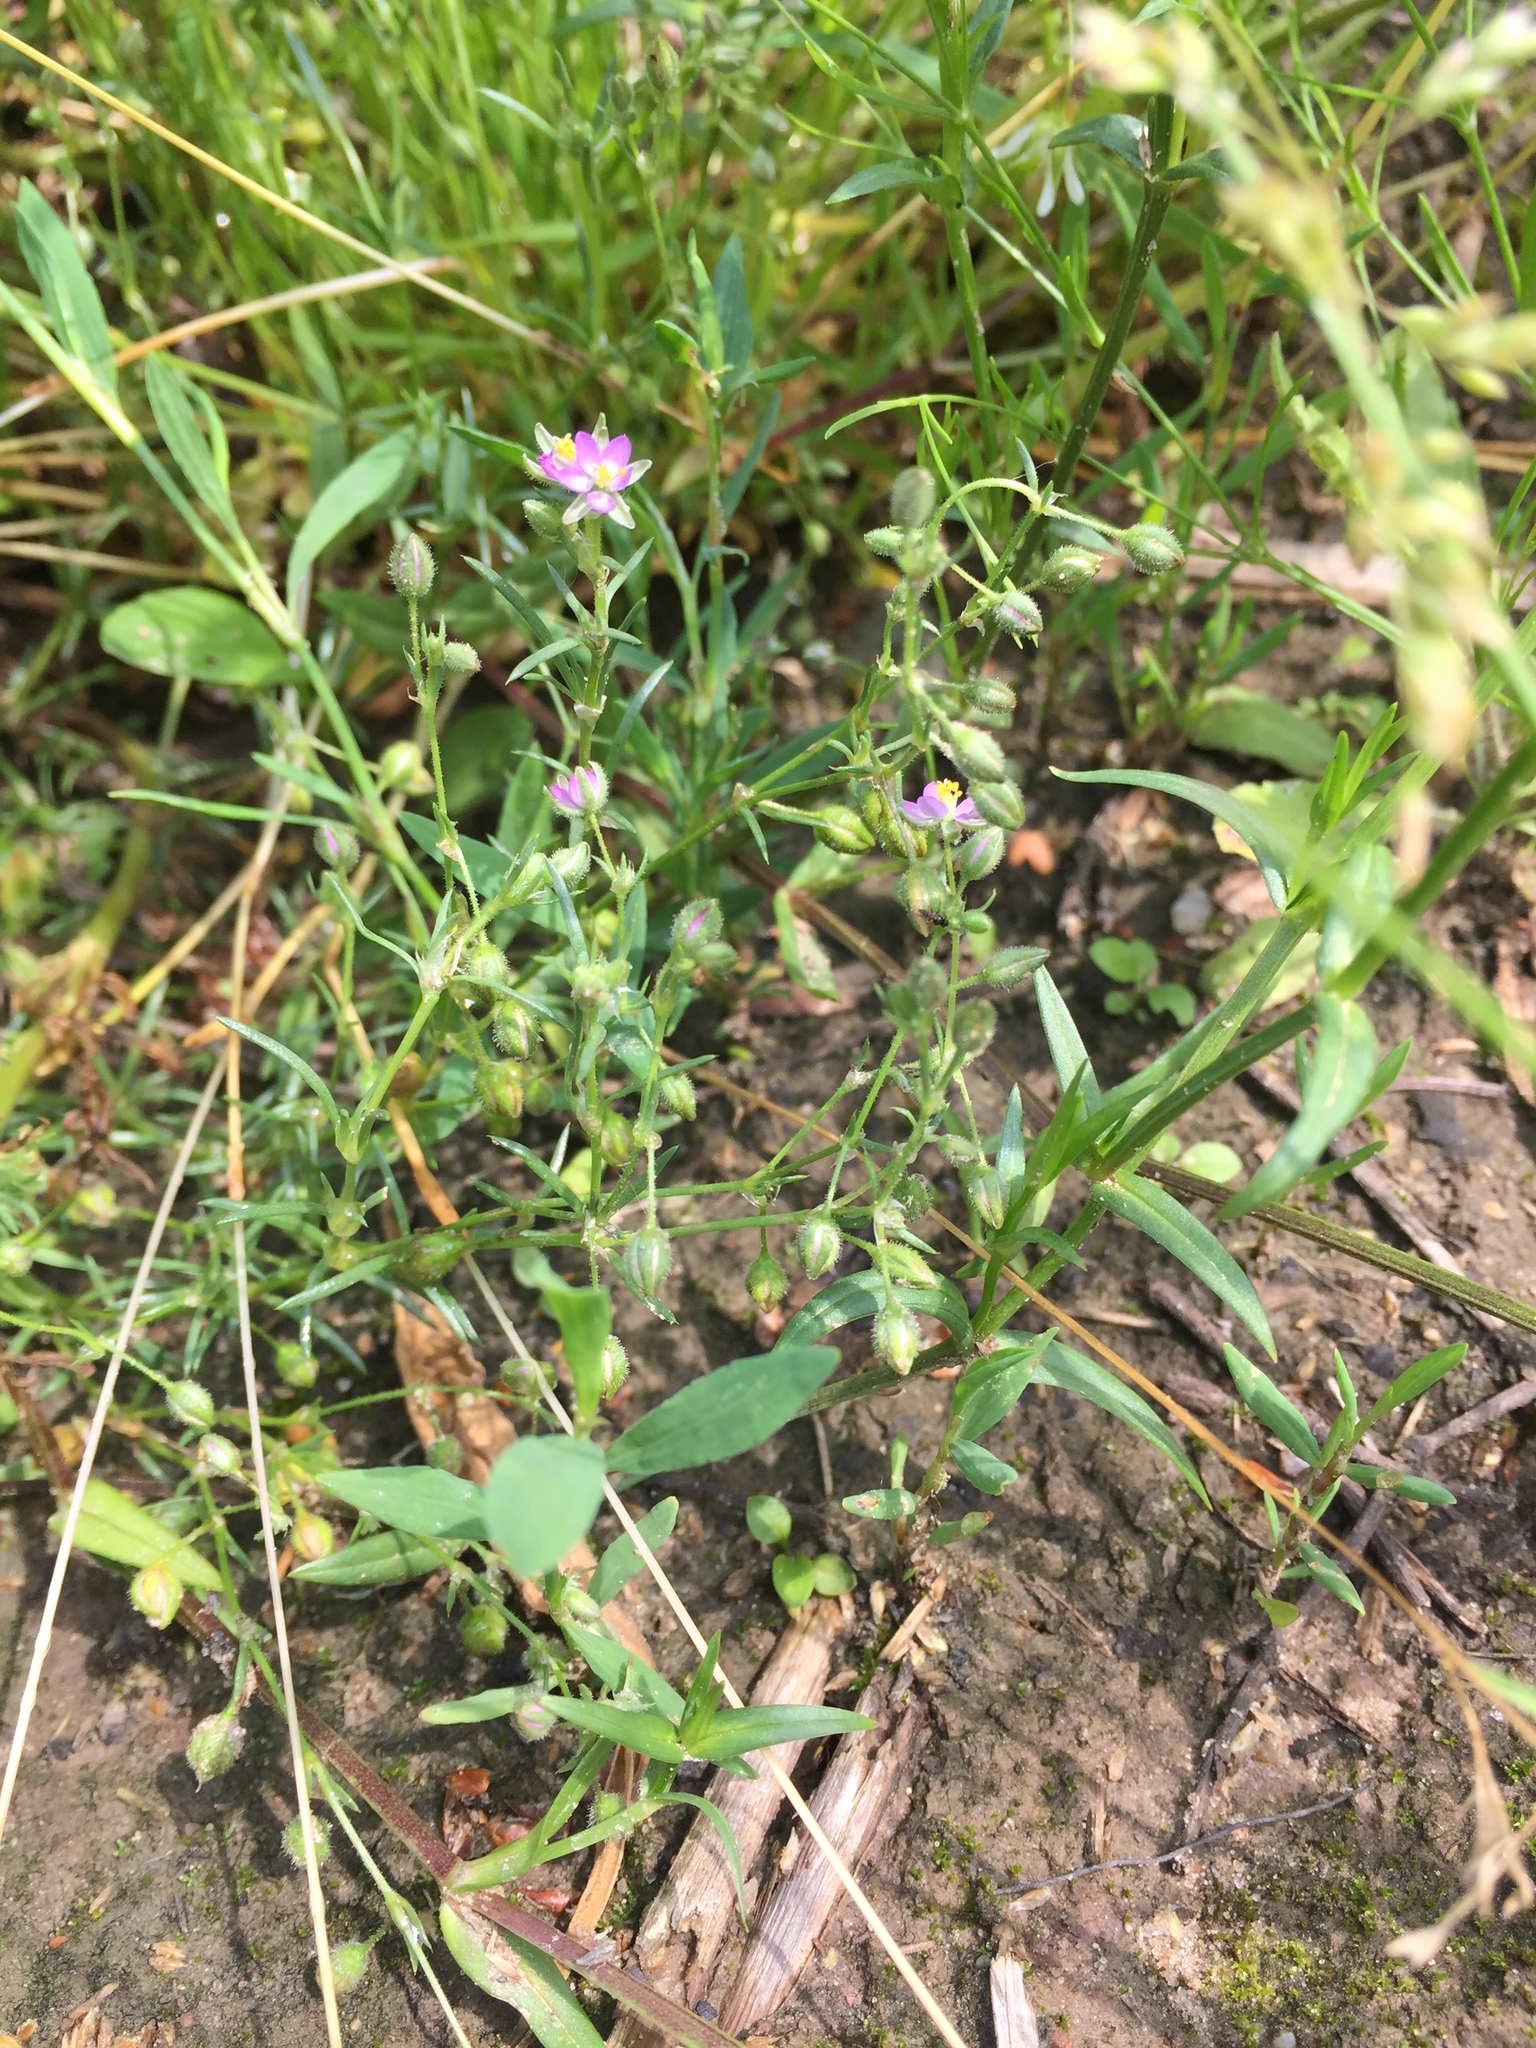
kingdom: Plantae
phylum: Tracheophyta
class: Magnoliopsida
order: Caryophyllales
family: Caryophyllaceae
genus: Spergularia
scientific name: Spergularia rubra
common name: Red sand-spurrey
